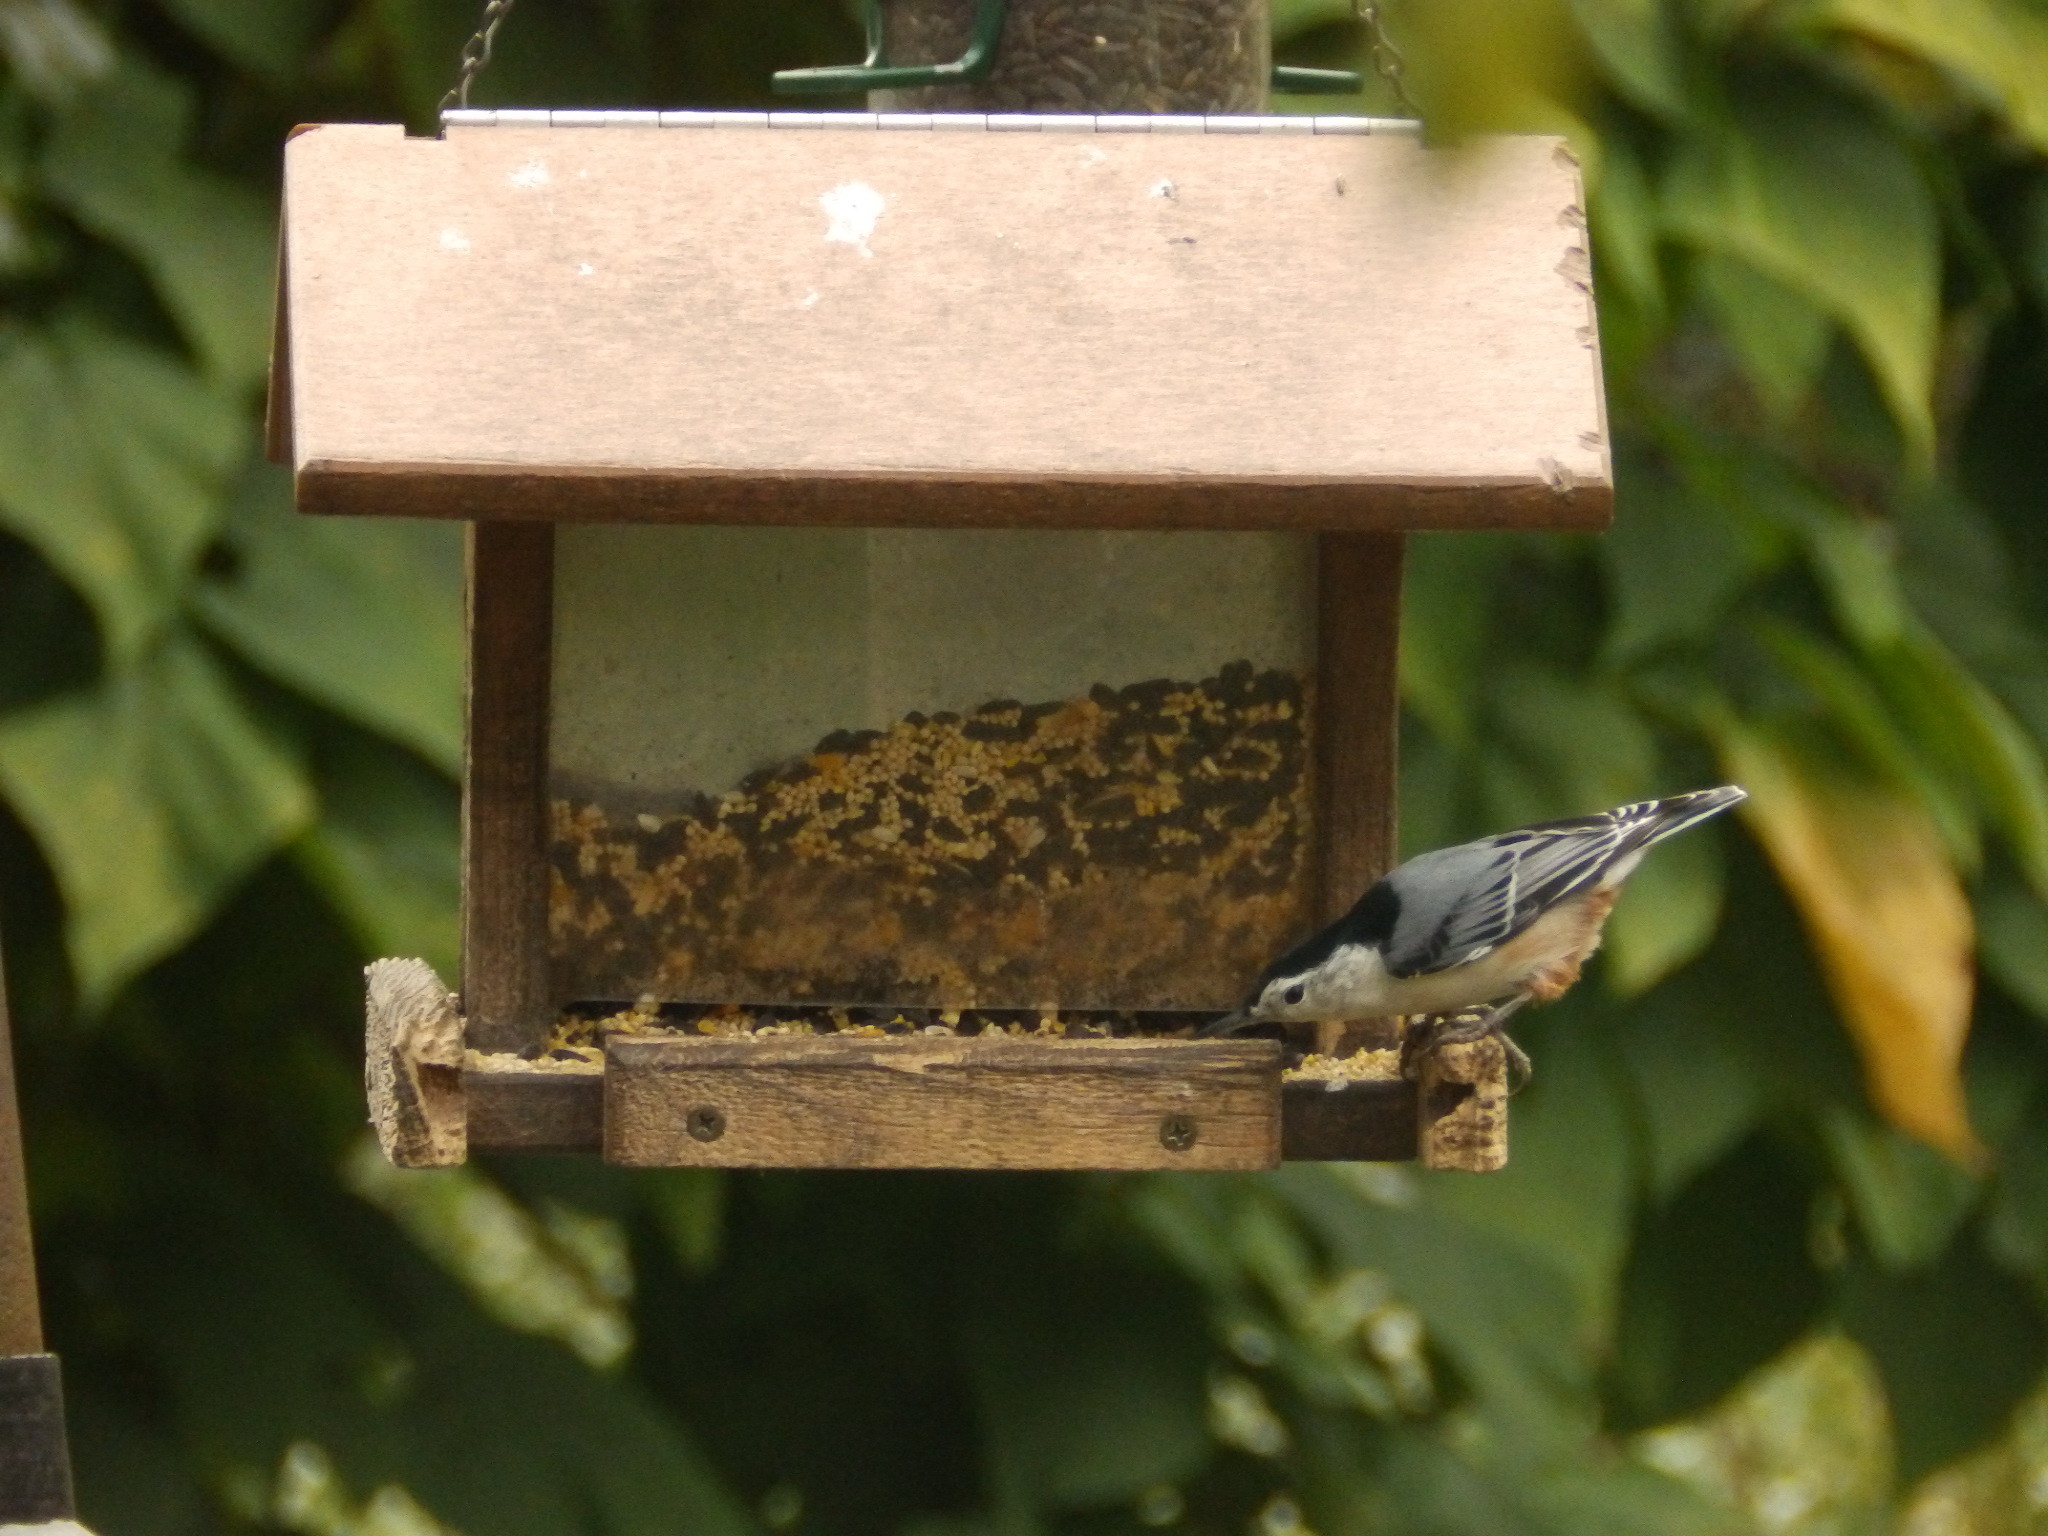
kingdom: Animalia
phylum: Chordata
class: Aves
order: Passeriformes
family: Sittidae
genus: Sitta
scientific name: Sitta carolinensis
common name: White-breasted nuthatch
